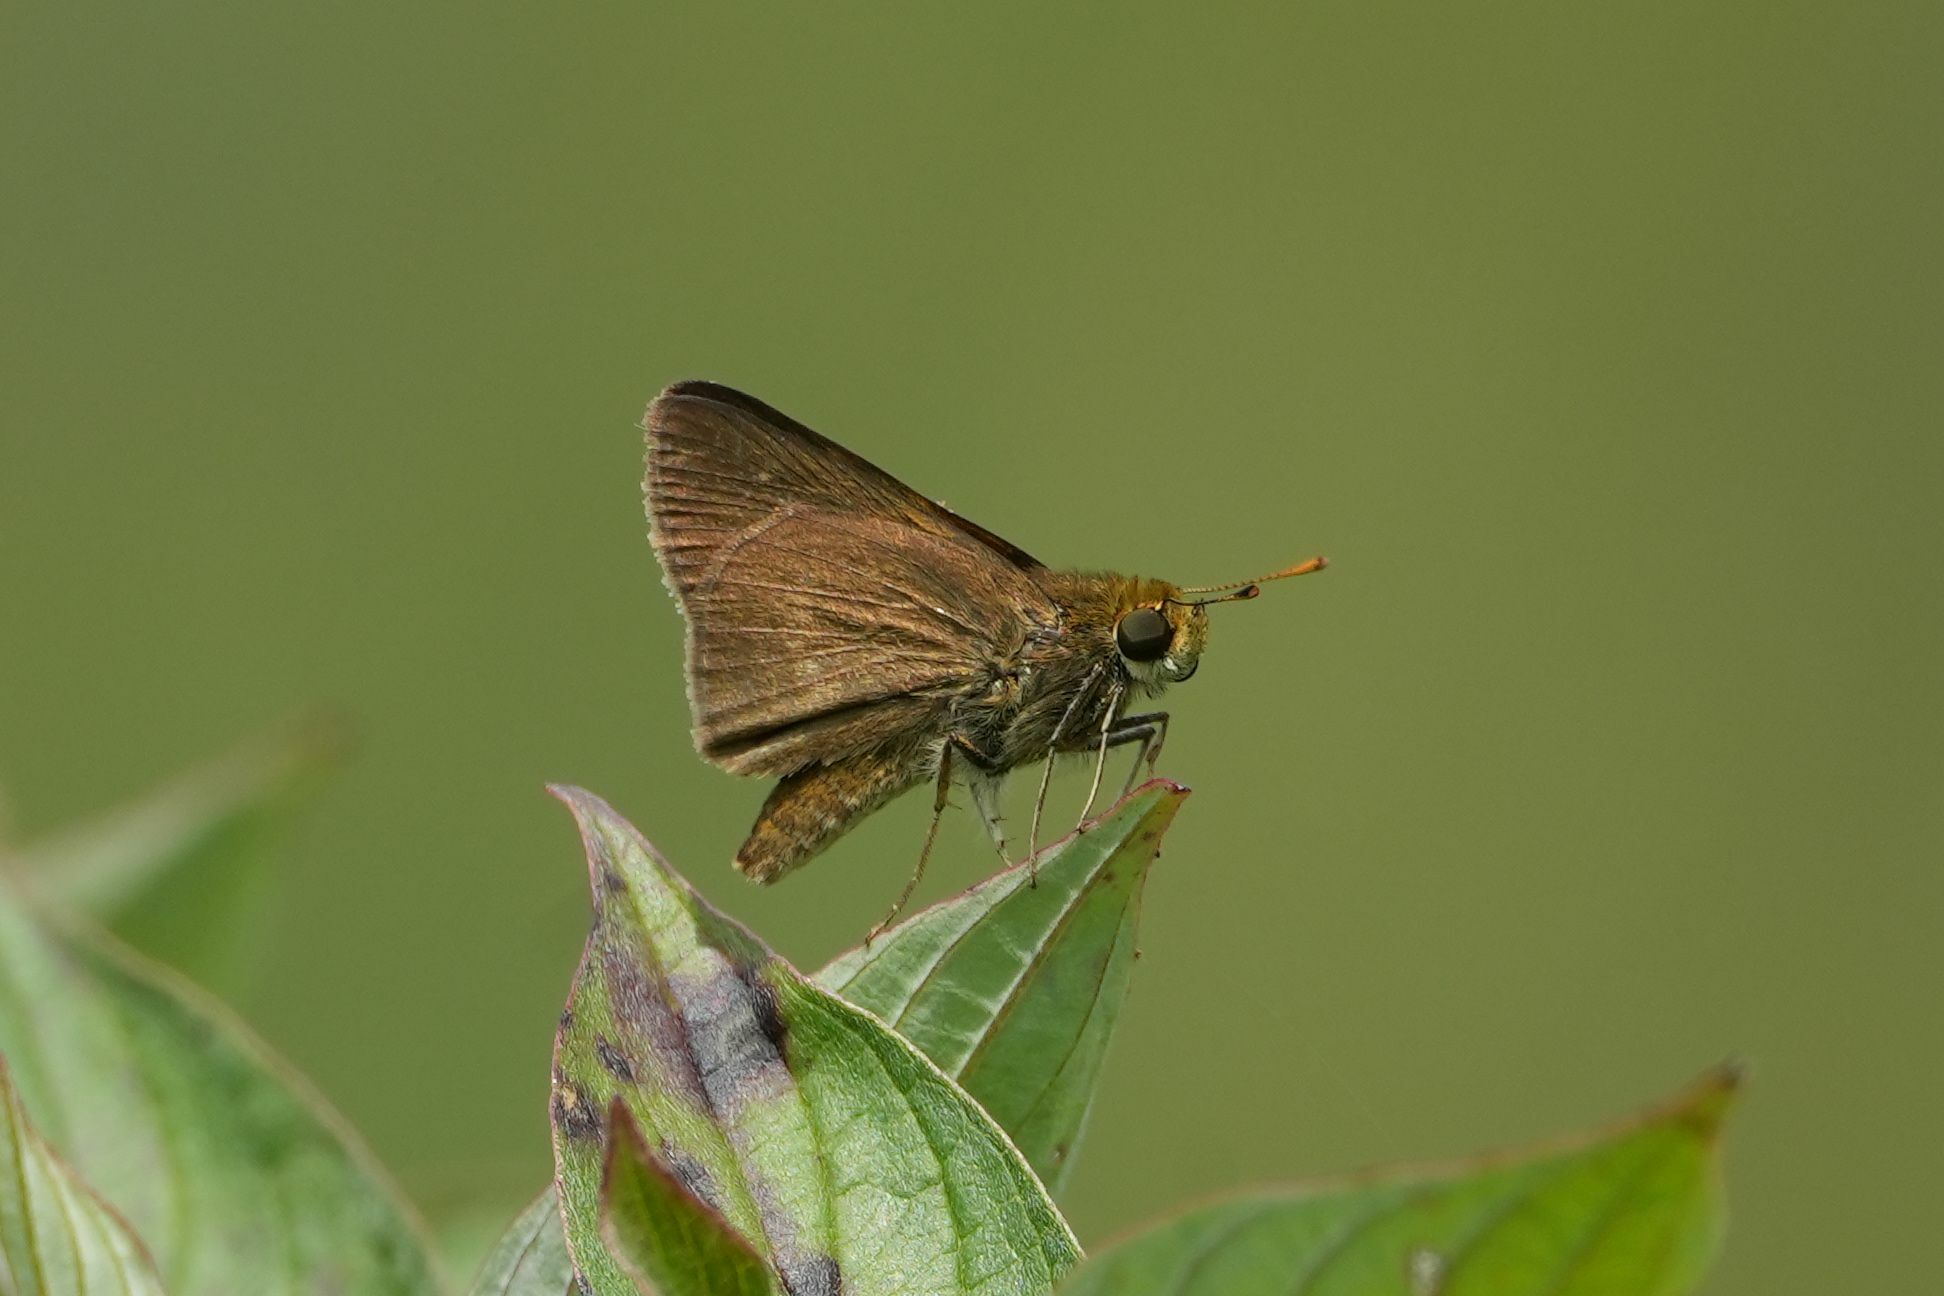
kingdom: Animalia
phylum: Arthropoda
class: Insecta
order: Lepidoptera
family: Hesperiidae
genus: Euphyes
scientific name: Euphyes vestris
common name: Dun skipper
